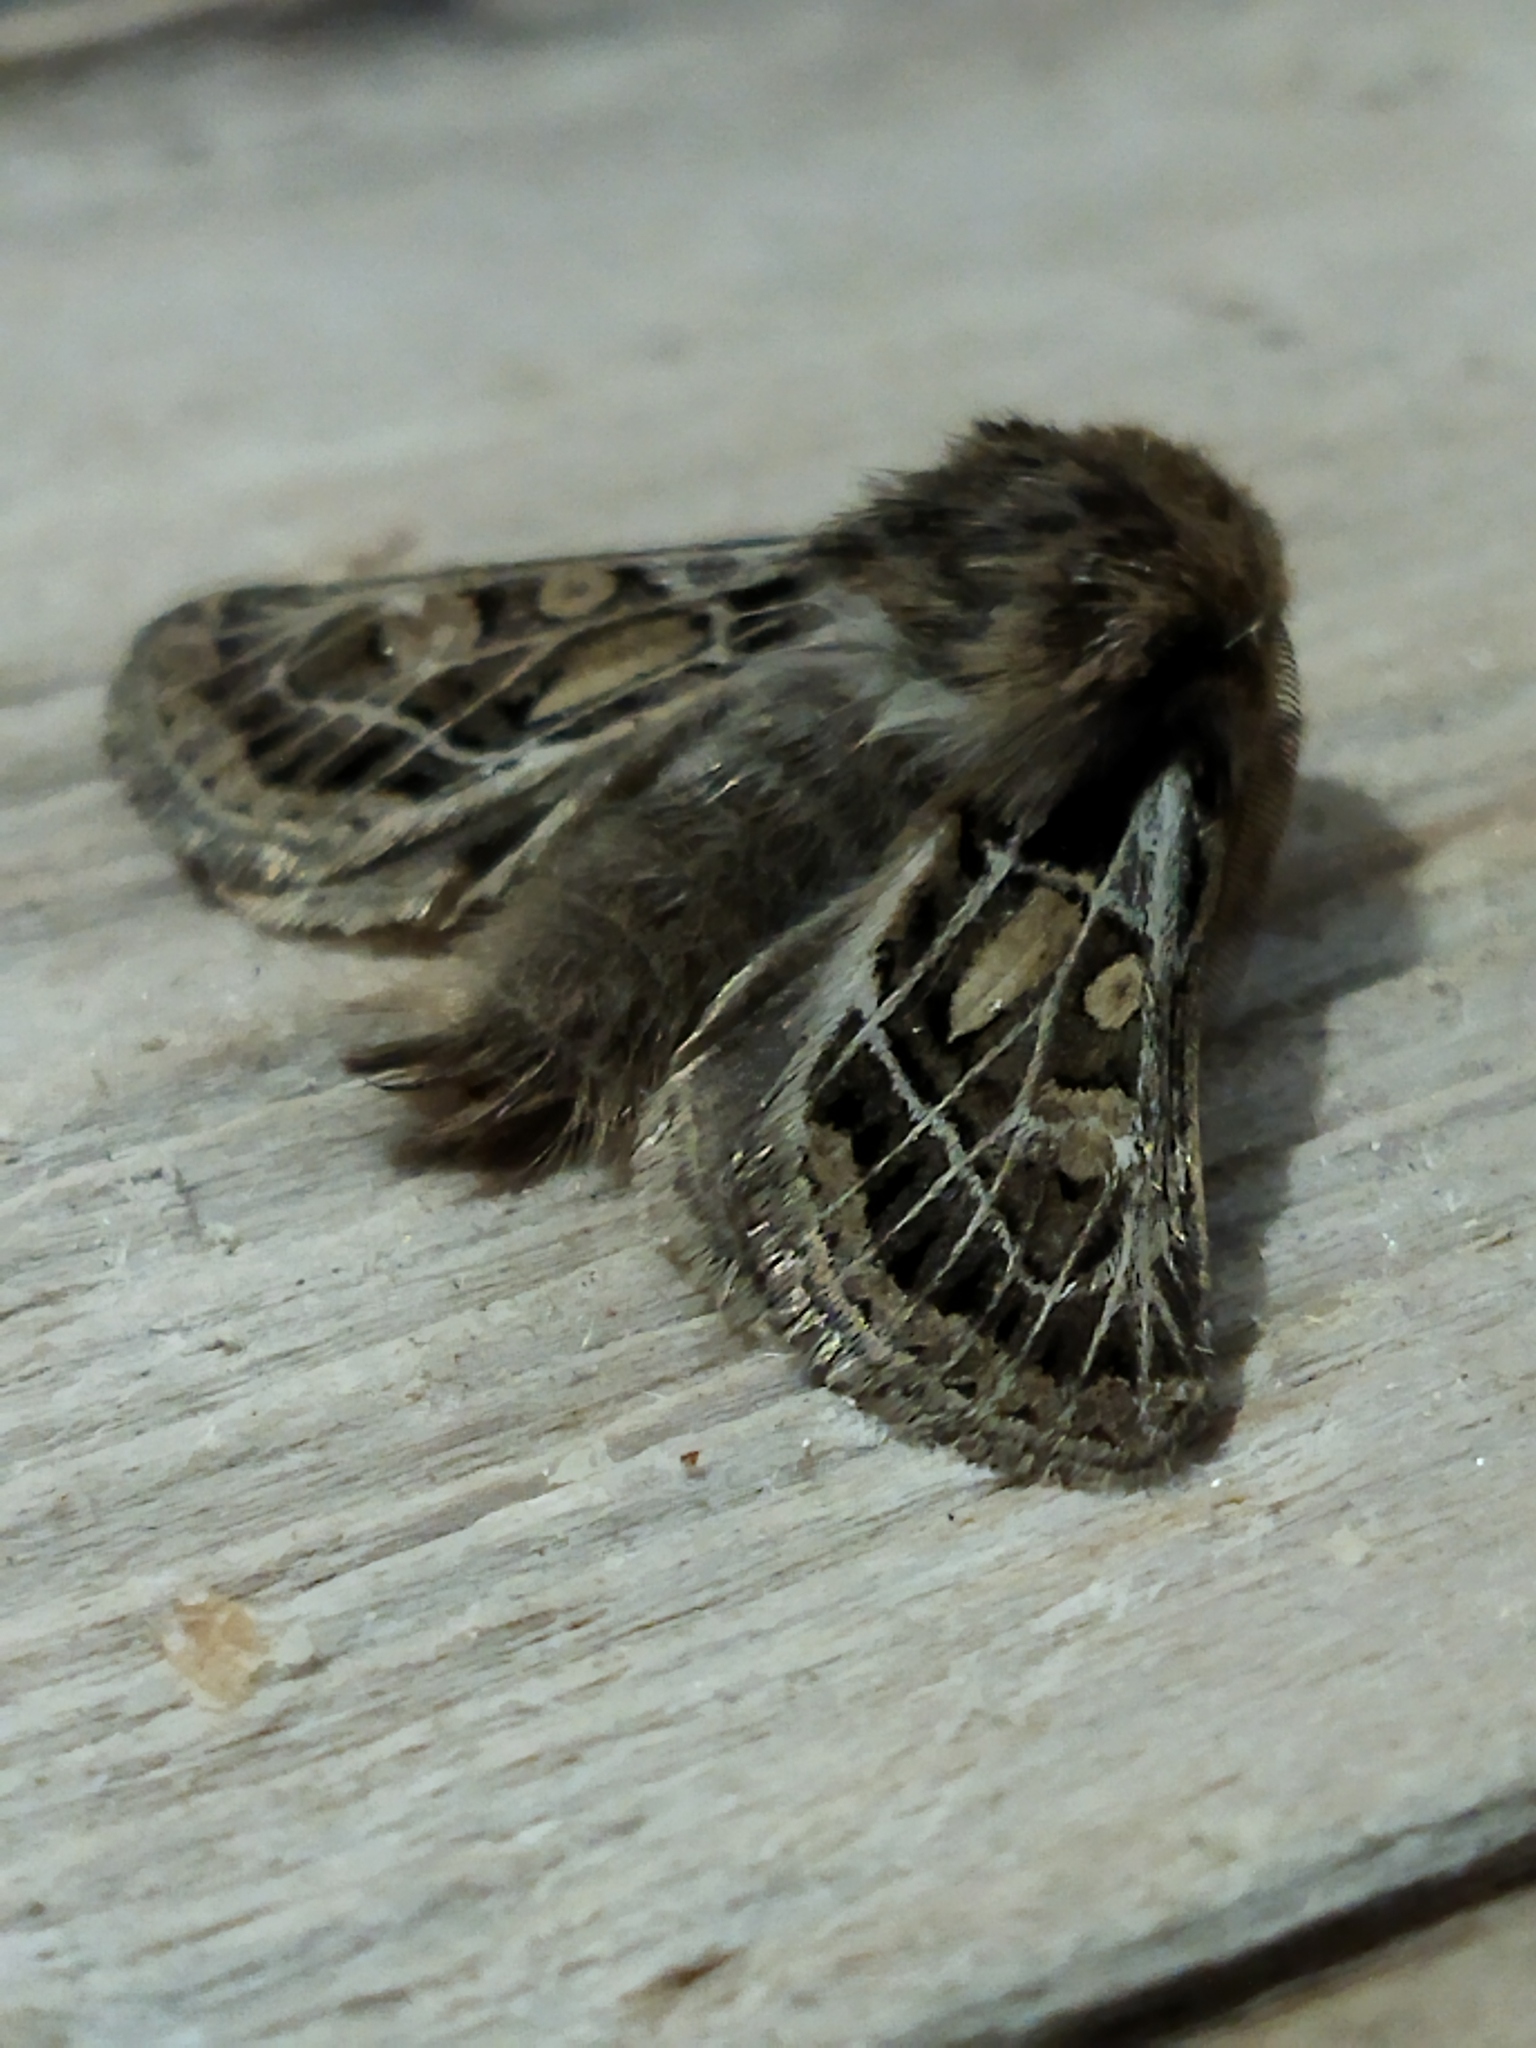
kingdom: Animalia
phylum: Arthropoda
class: Insecta
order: Lepidoptera
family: Noctuidae
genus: Ulochlaena
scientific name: Ulochlaena hirta
